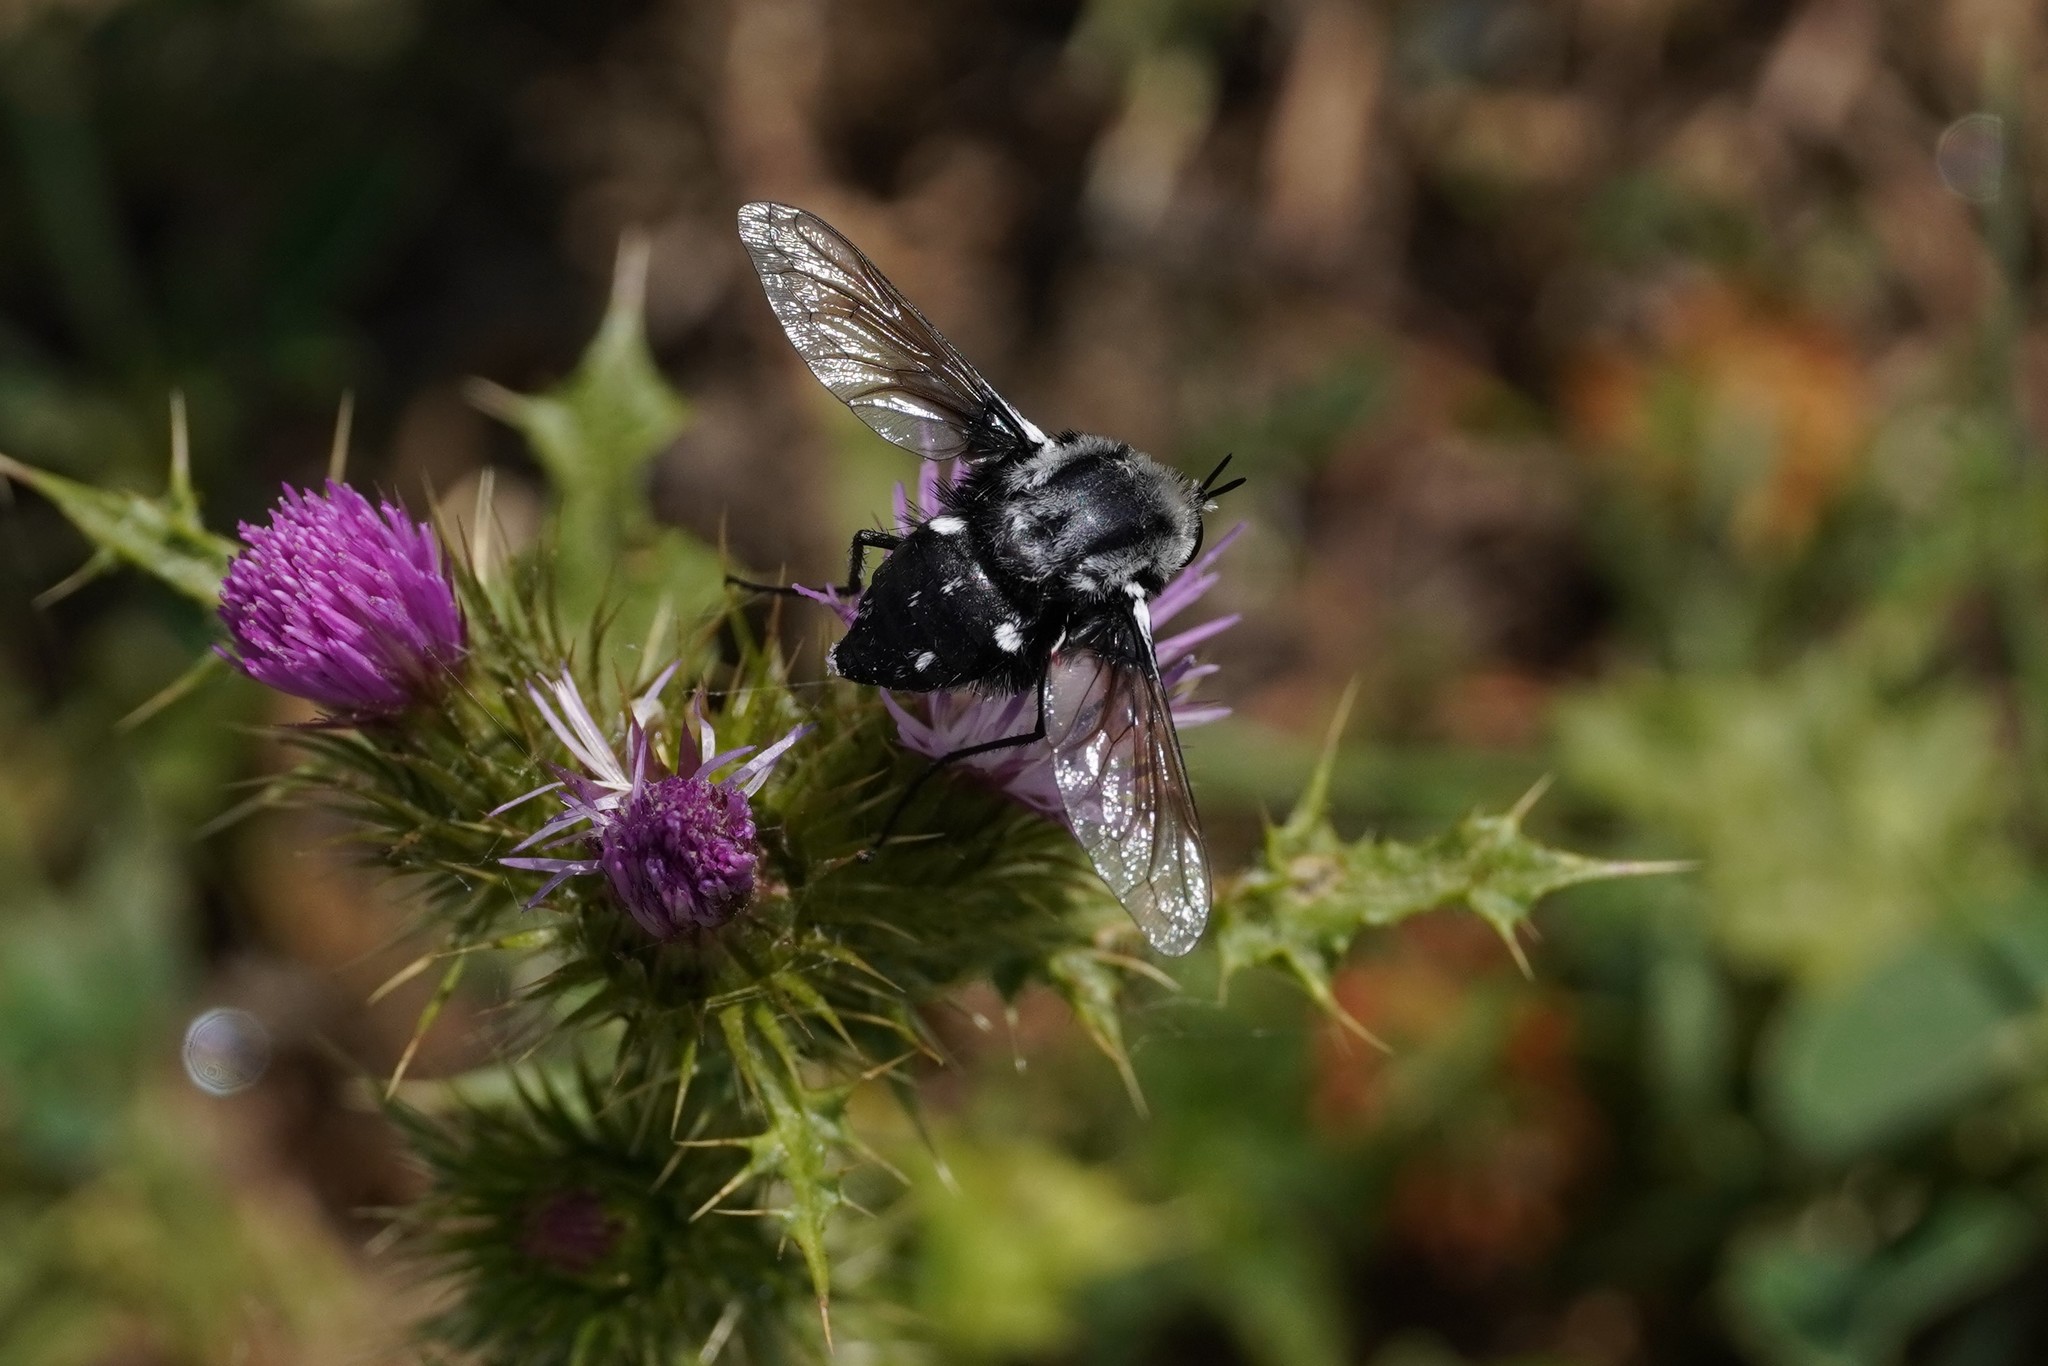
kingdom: Animalia
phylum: Arthropoda
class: Insecta
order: Diptera
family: Bombyliidae
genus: Bombomyia
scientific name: Bombomyia vertebralis
